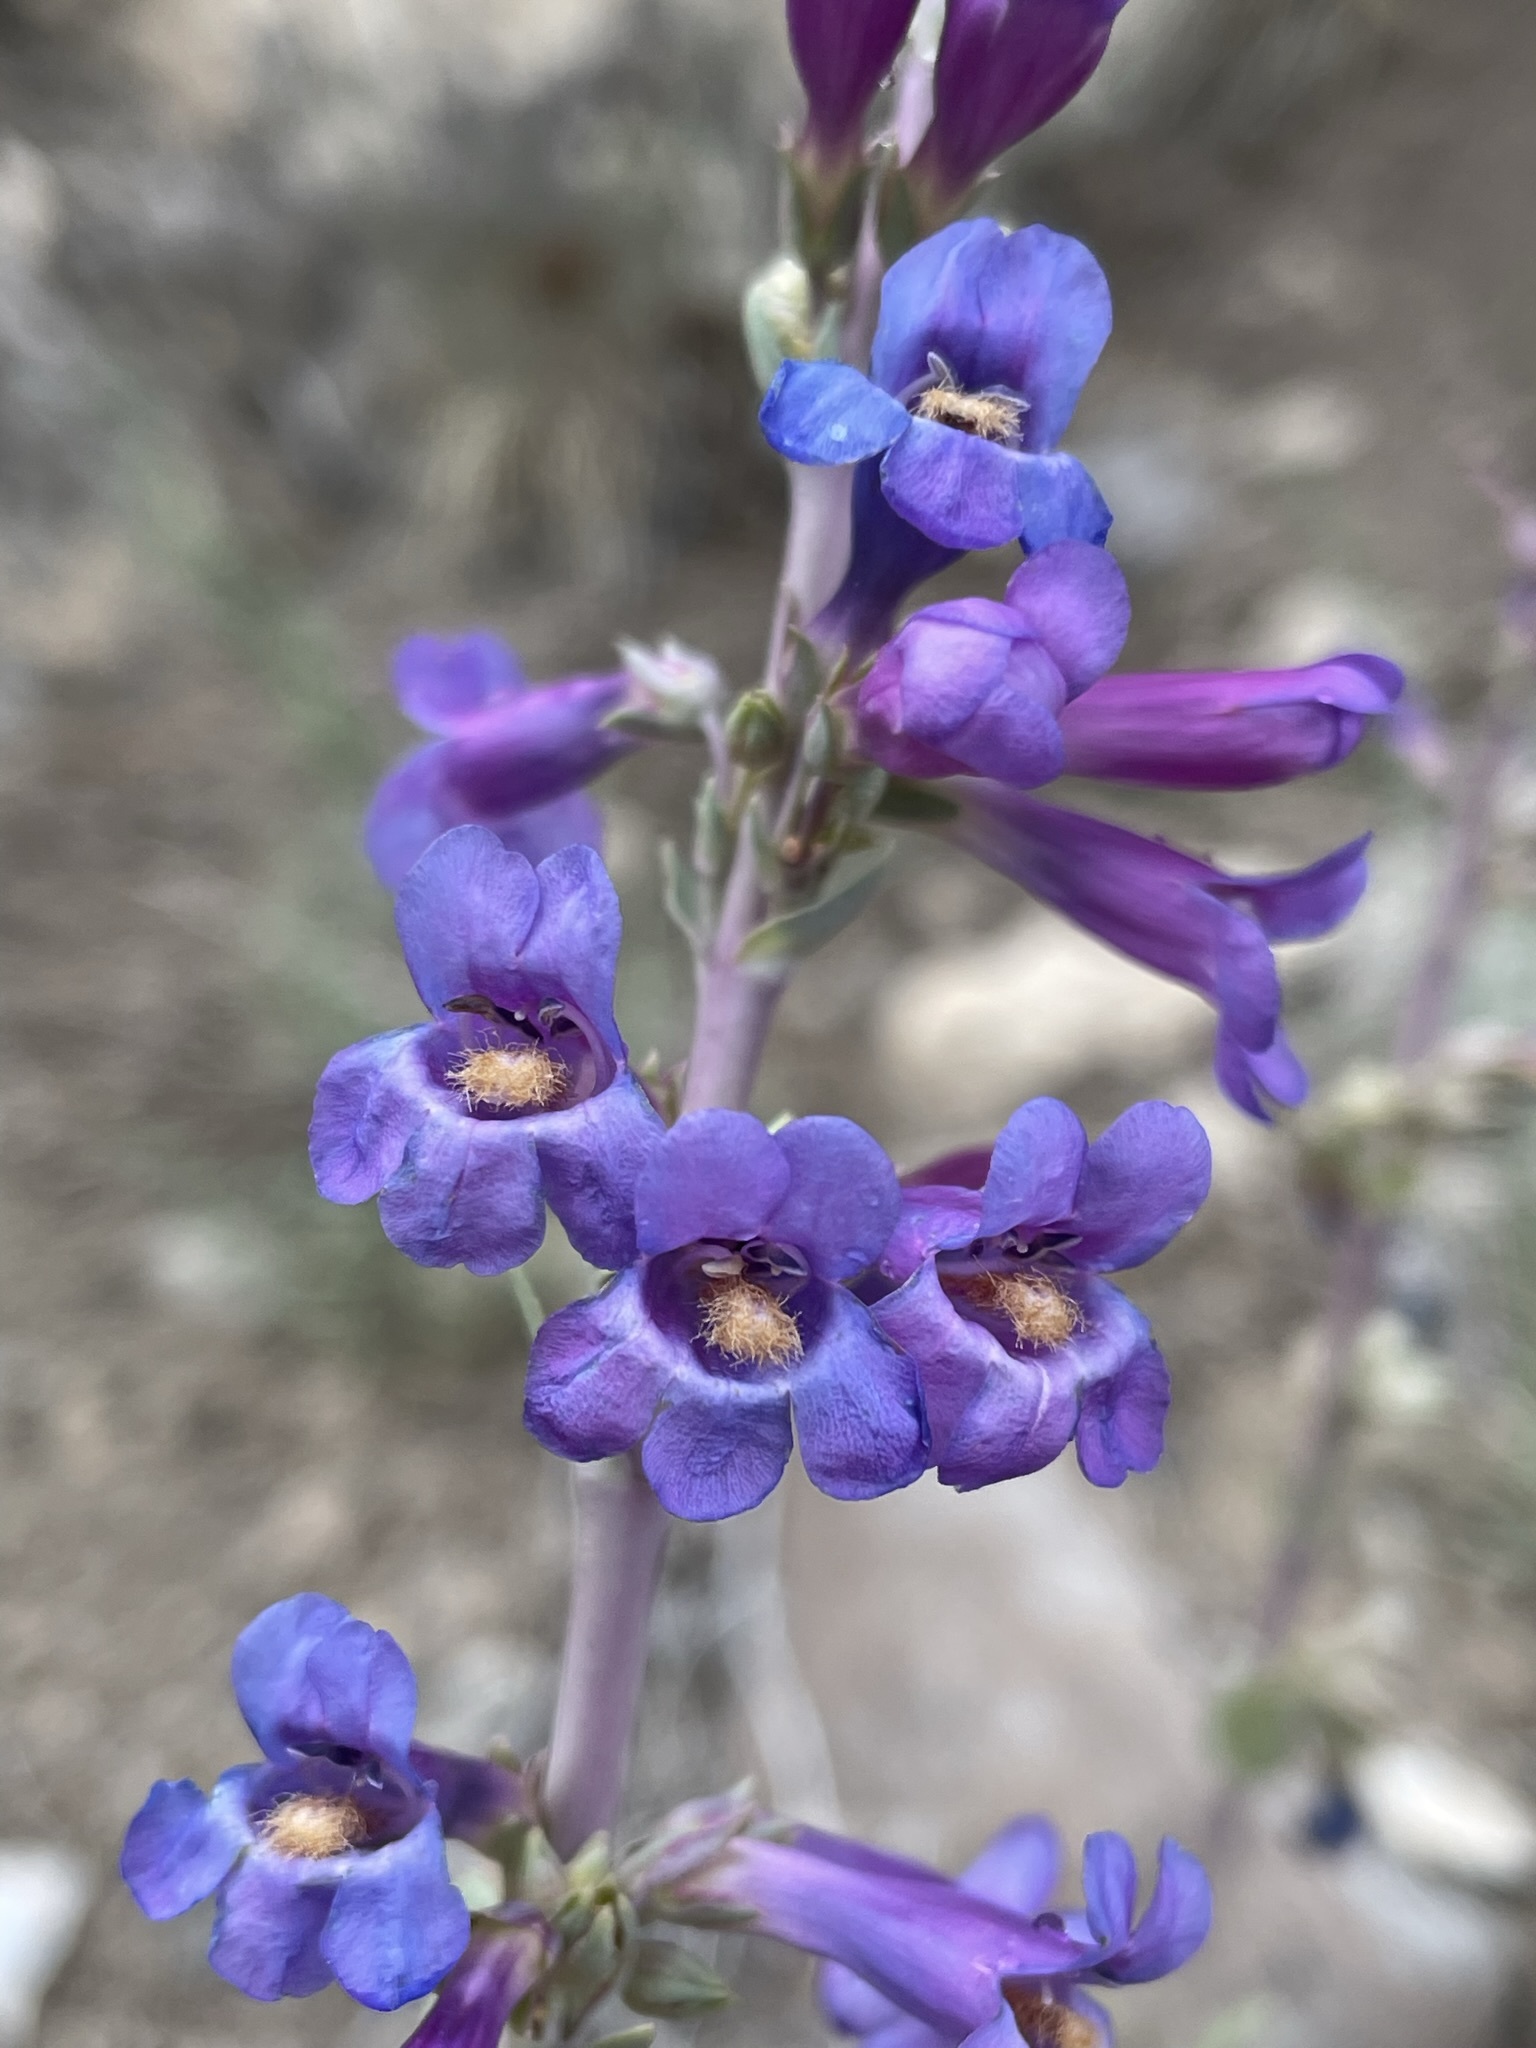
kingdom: Plantae
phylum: Tracheophyta
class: Magnoliopsida
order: Lamiales
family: Plantaginaceae
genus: Penstemon
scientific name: Penstemon pachyphyllus
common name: Thick-leaf penstemon
